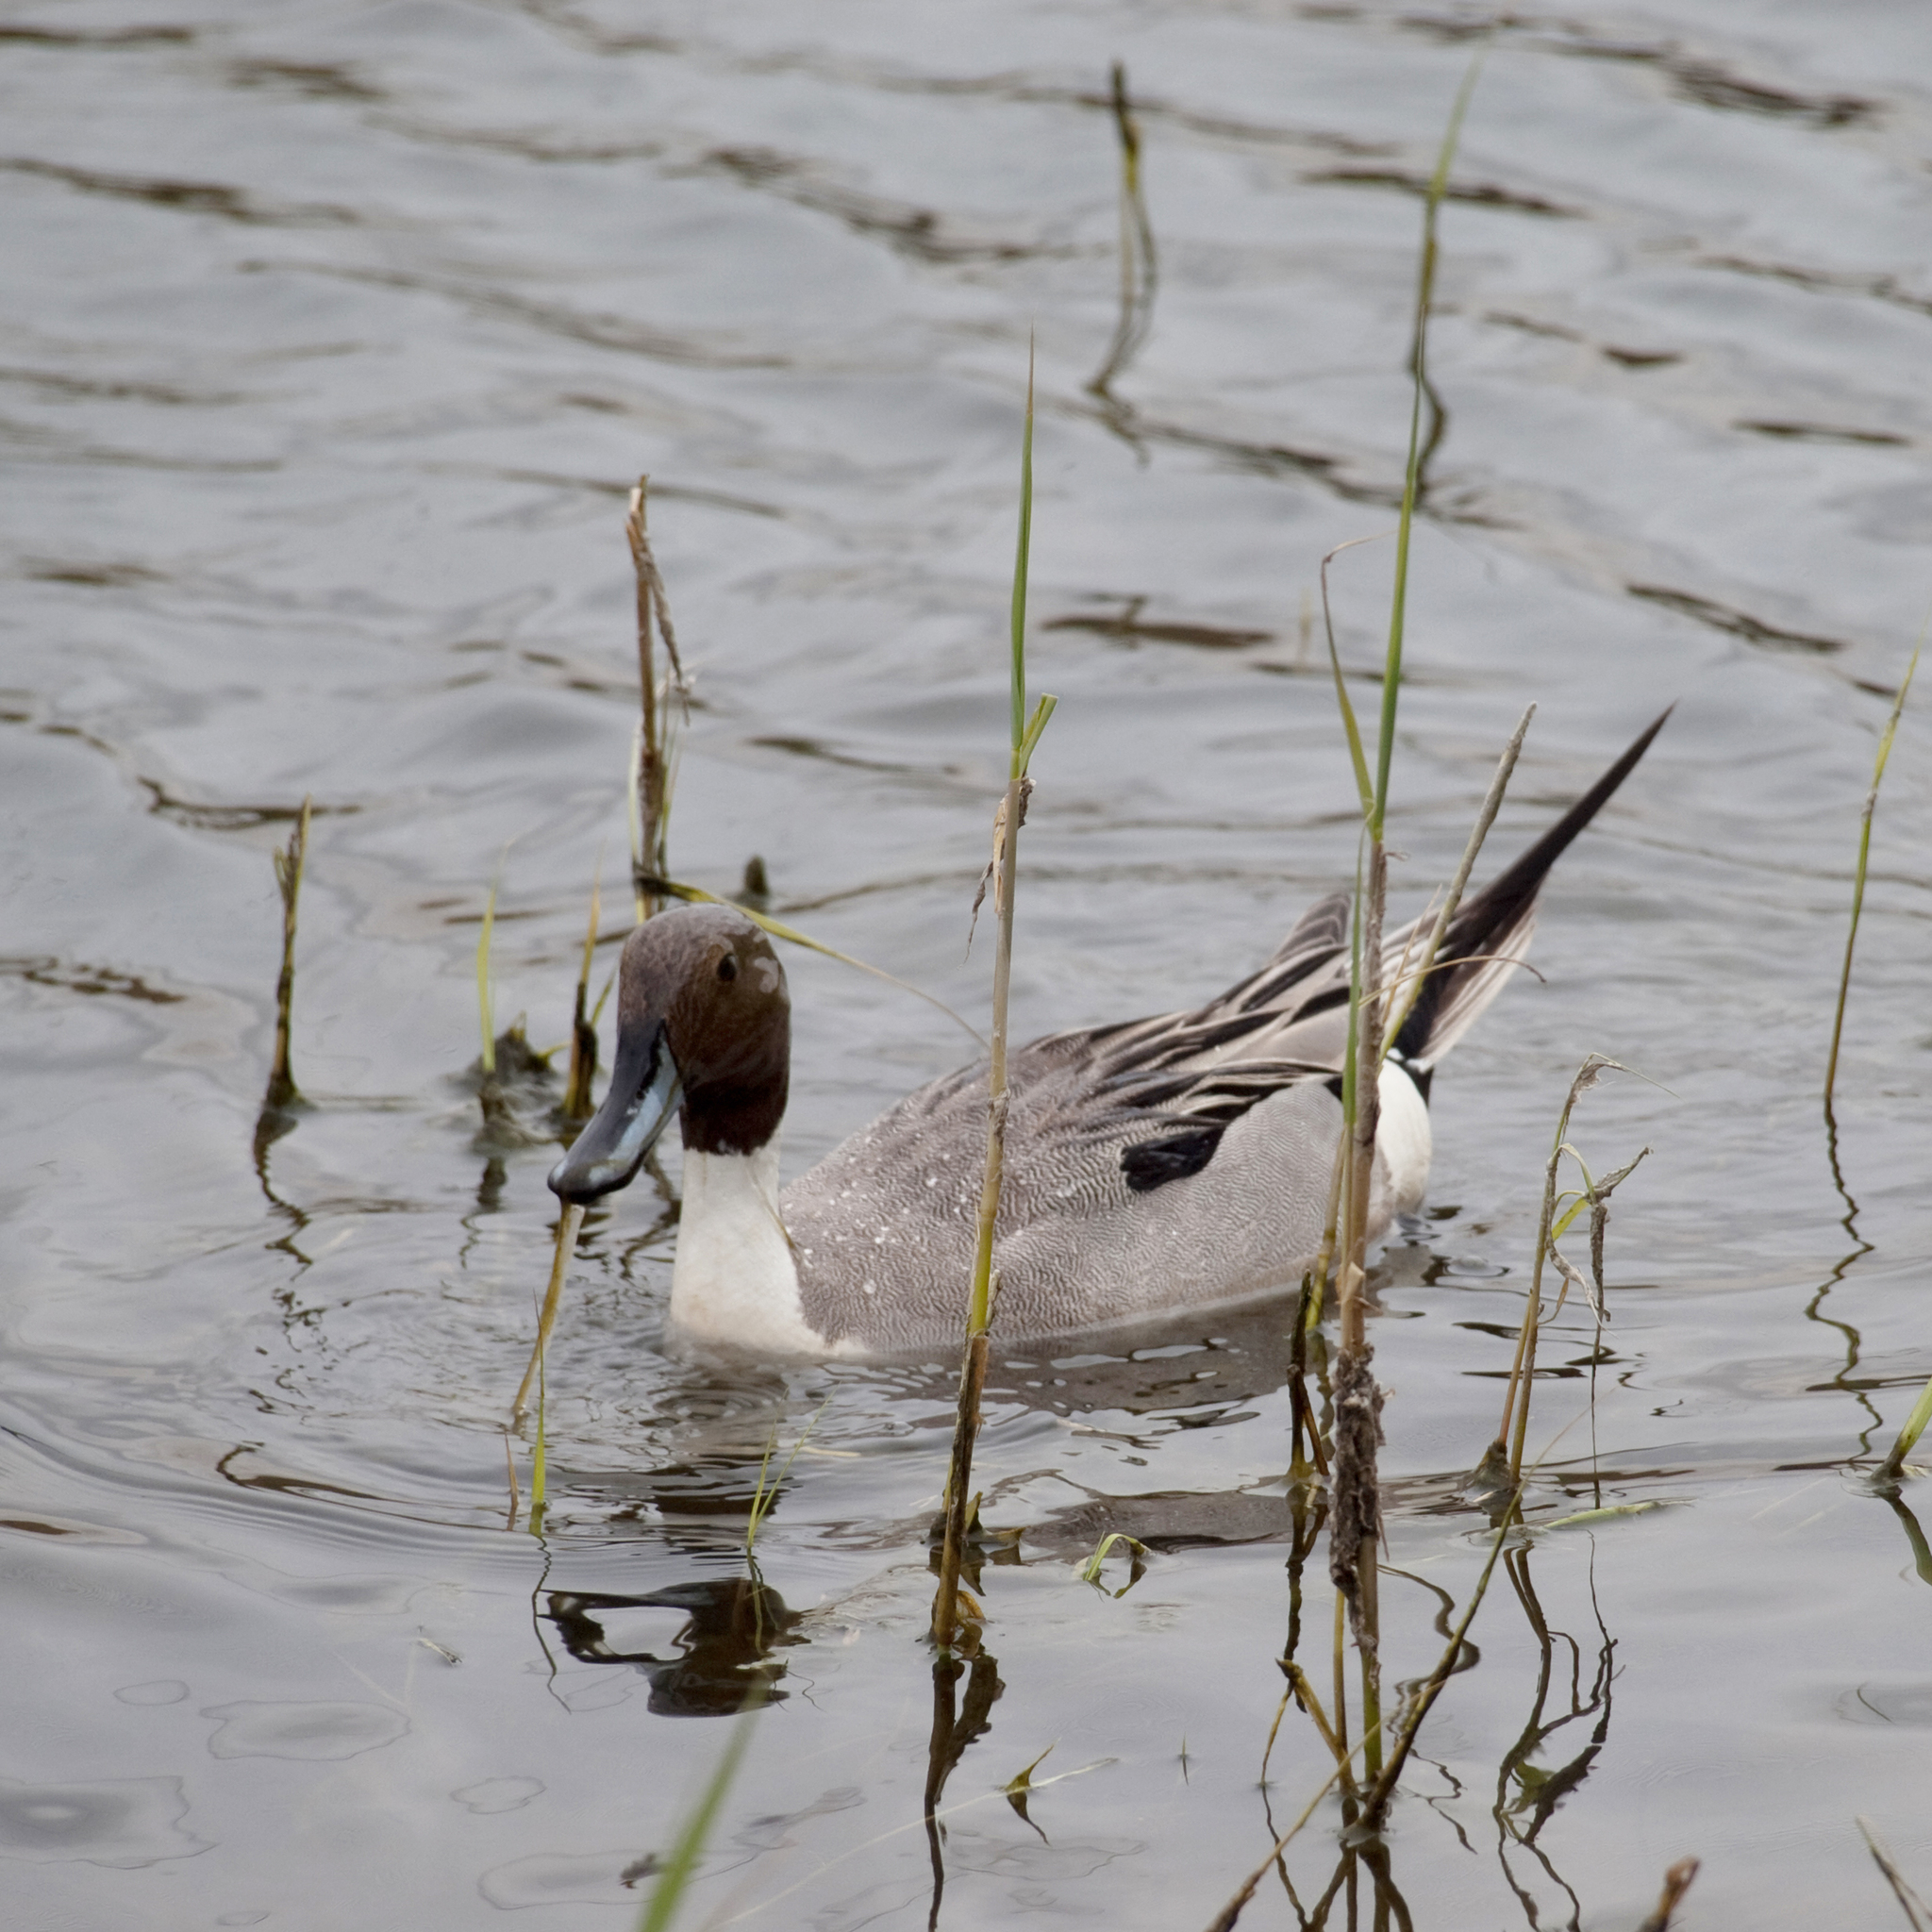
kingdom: Animalia
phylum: Chordata
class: Aves
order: Anseriformes
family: Anatidae
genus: Anas
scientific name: Anas acuta
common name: Northern pintail
